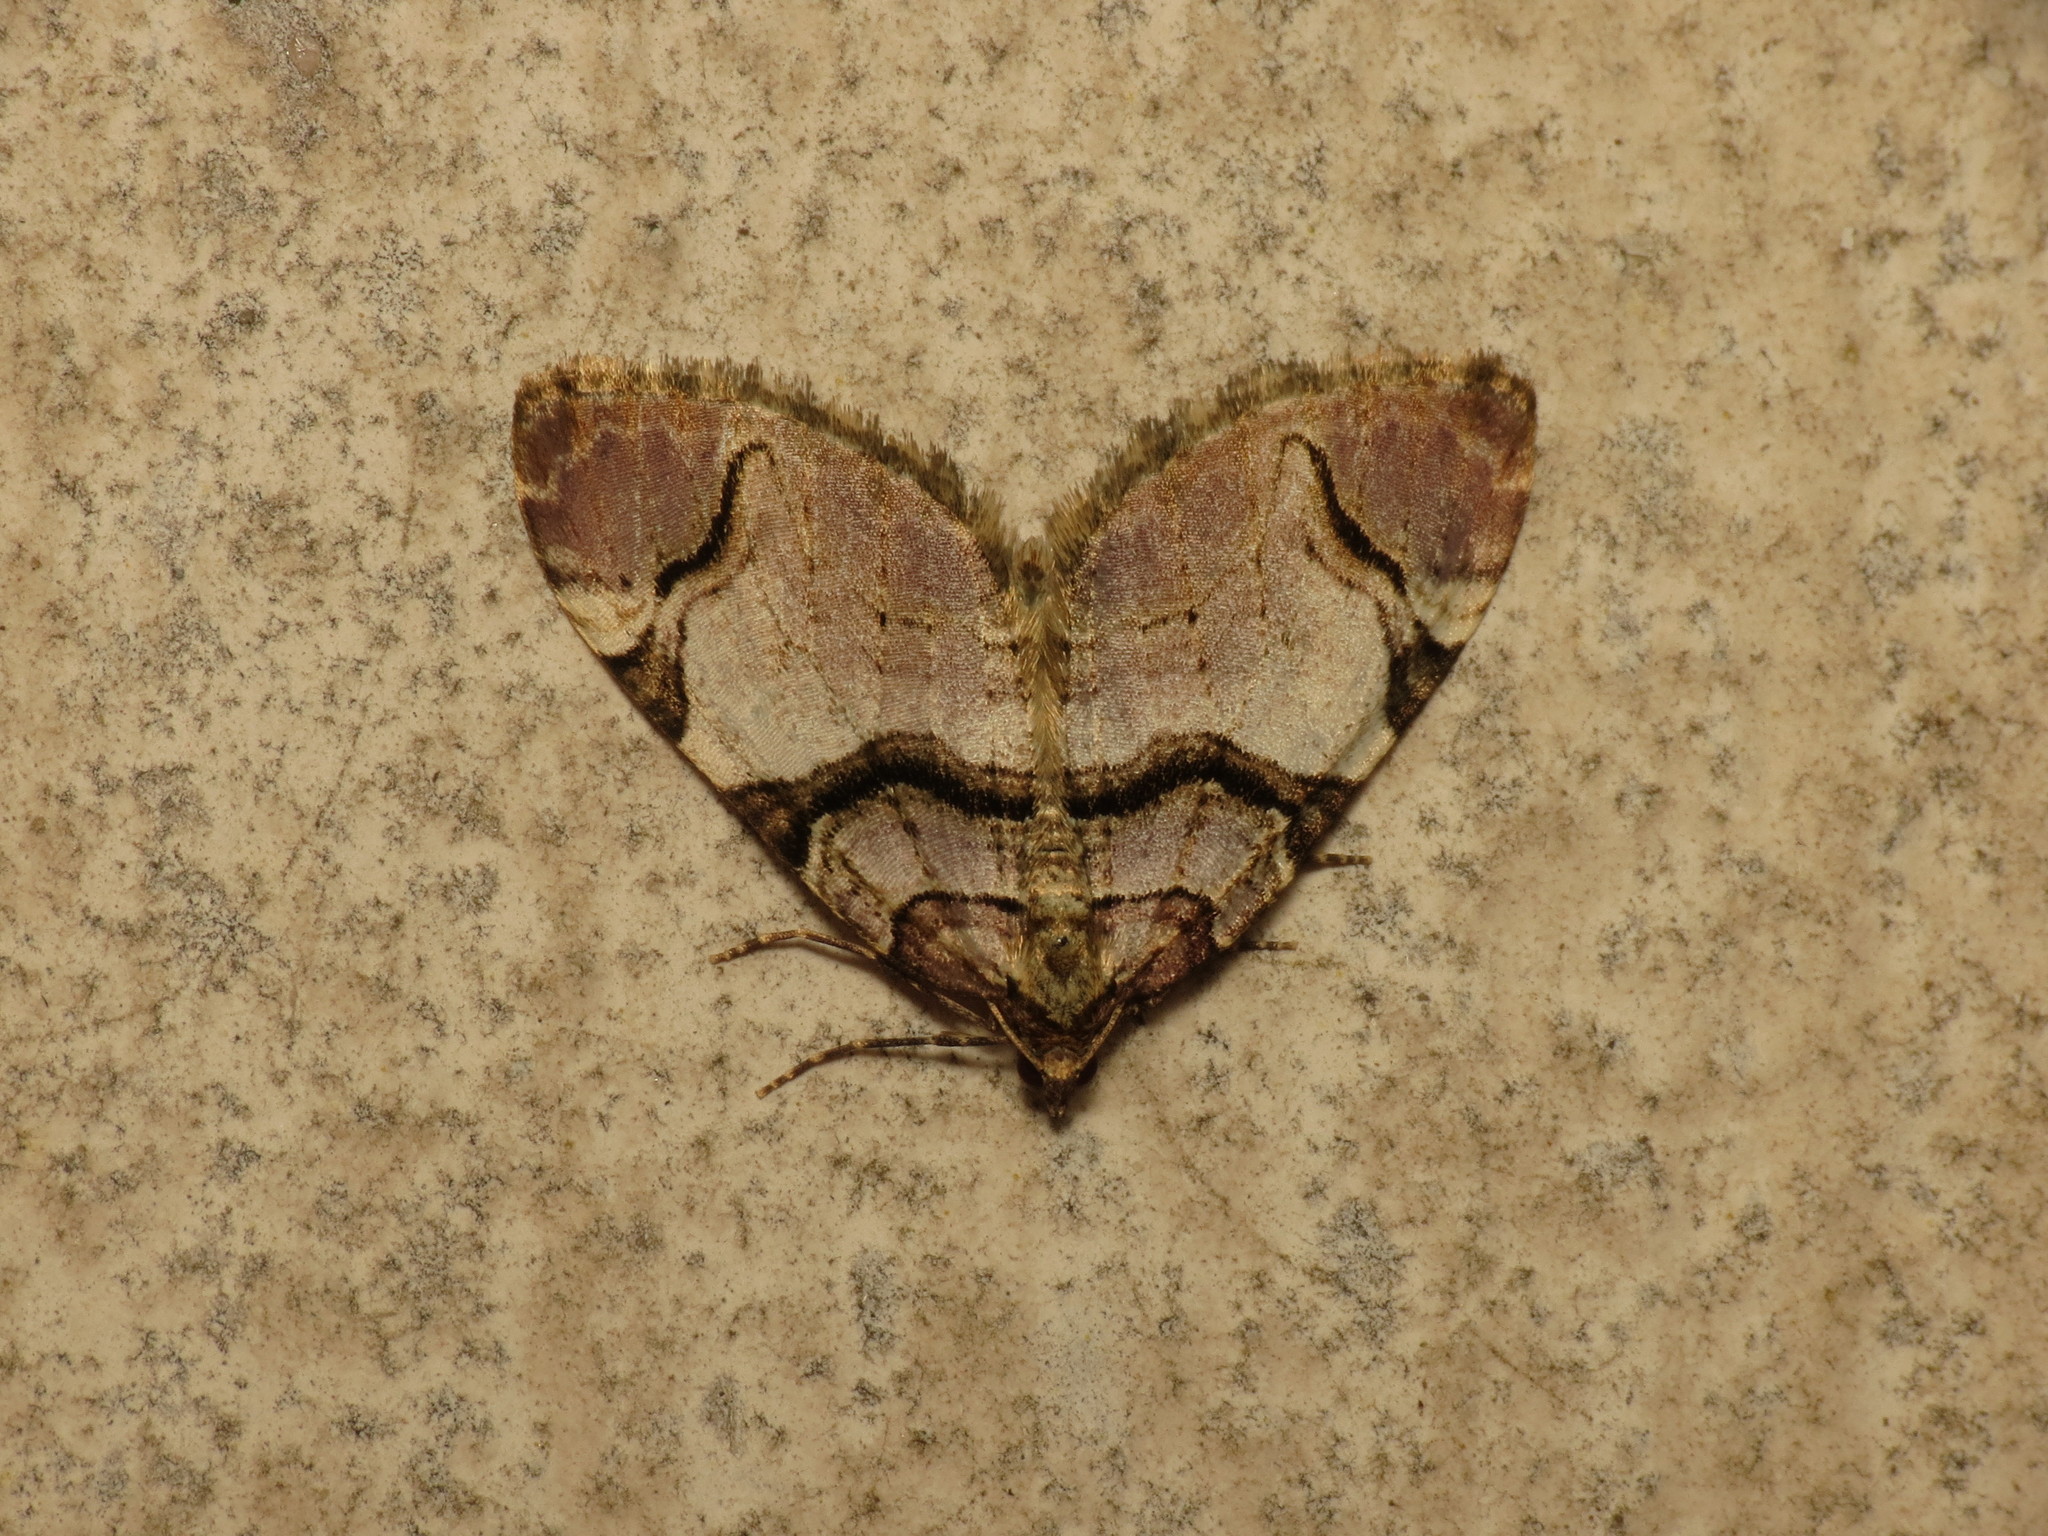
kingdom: Animalia
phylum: Arthropoda
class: Insecta
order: Lepidoptera
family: Geometridae
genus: Anticlea
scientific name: Anticlea derivata
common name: Streamer
